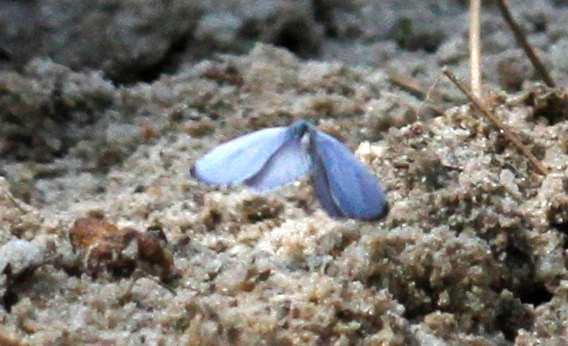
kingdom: Animalia
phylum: Arthropoda
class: Insecta
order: Lepidoptera
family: Lycaenidae
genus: Cyaniris
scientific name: Cyaniris neglecta
